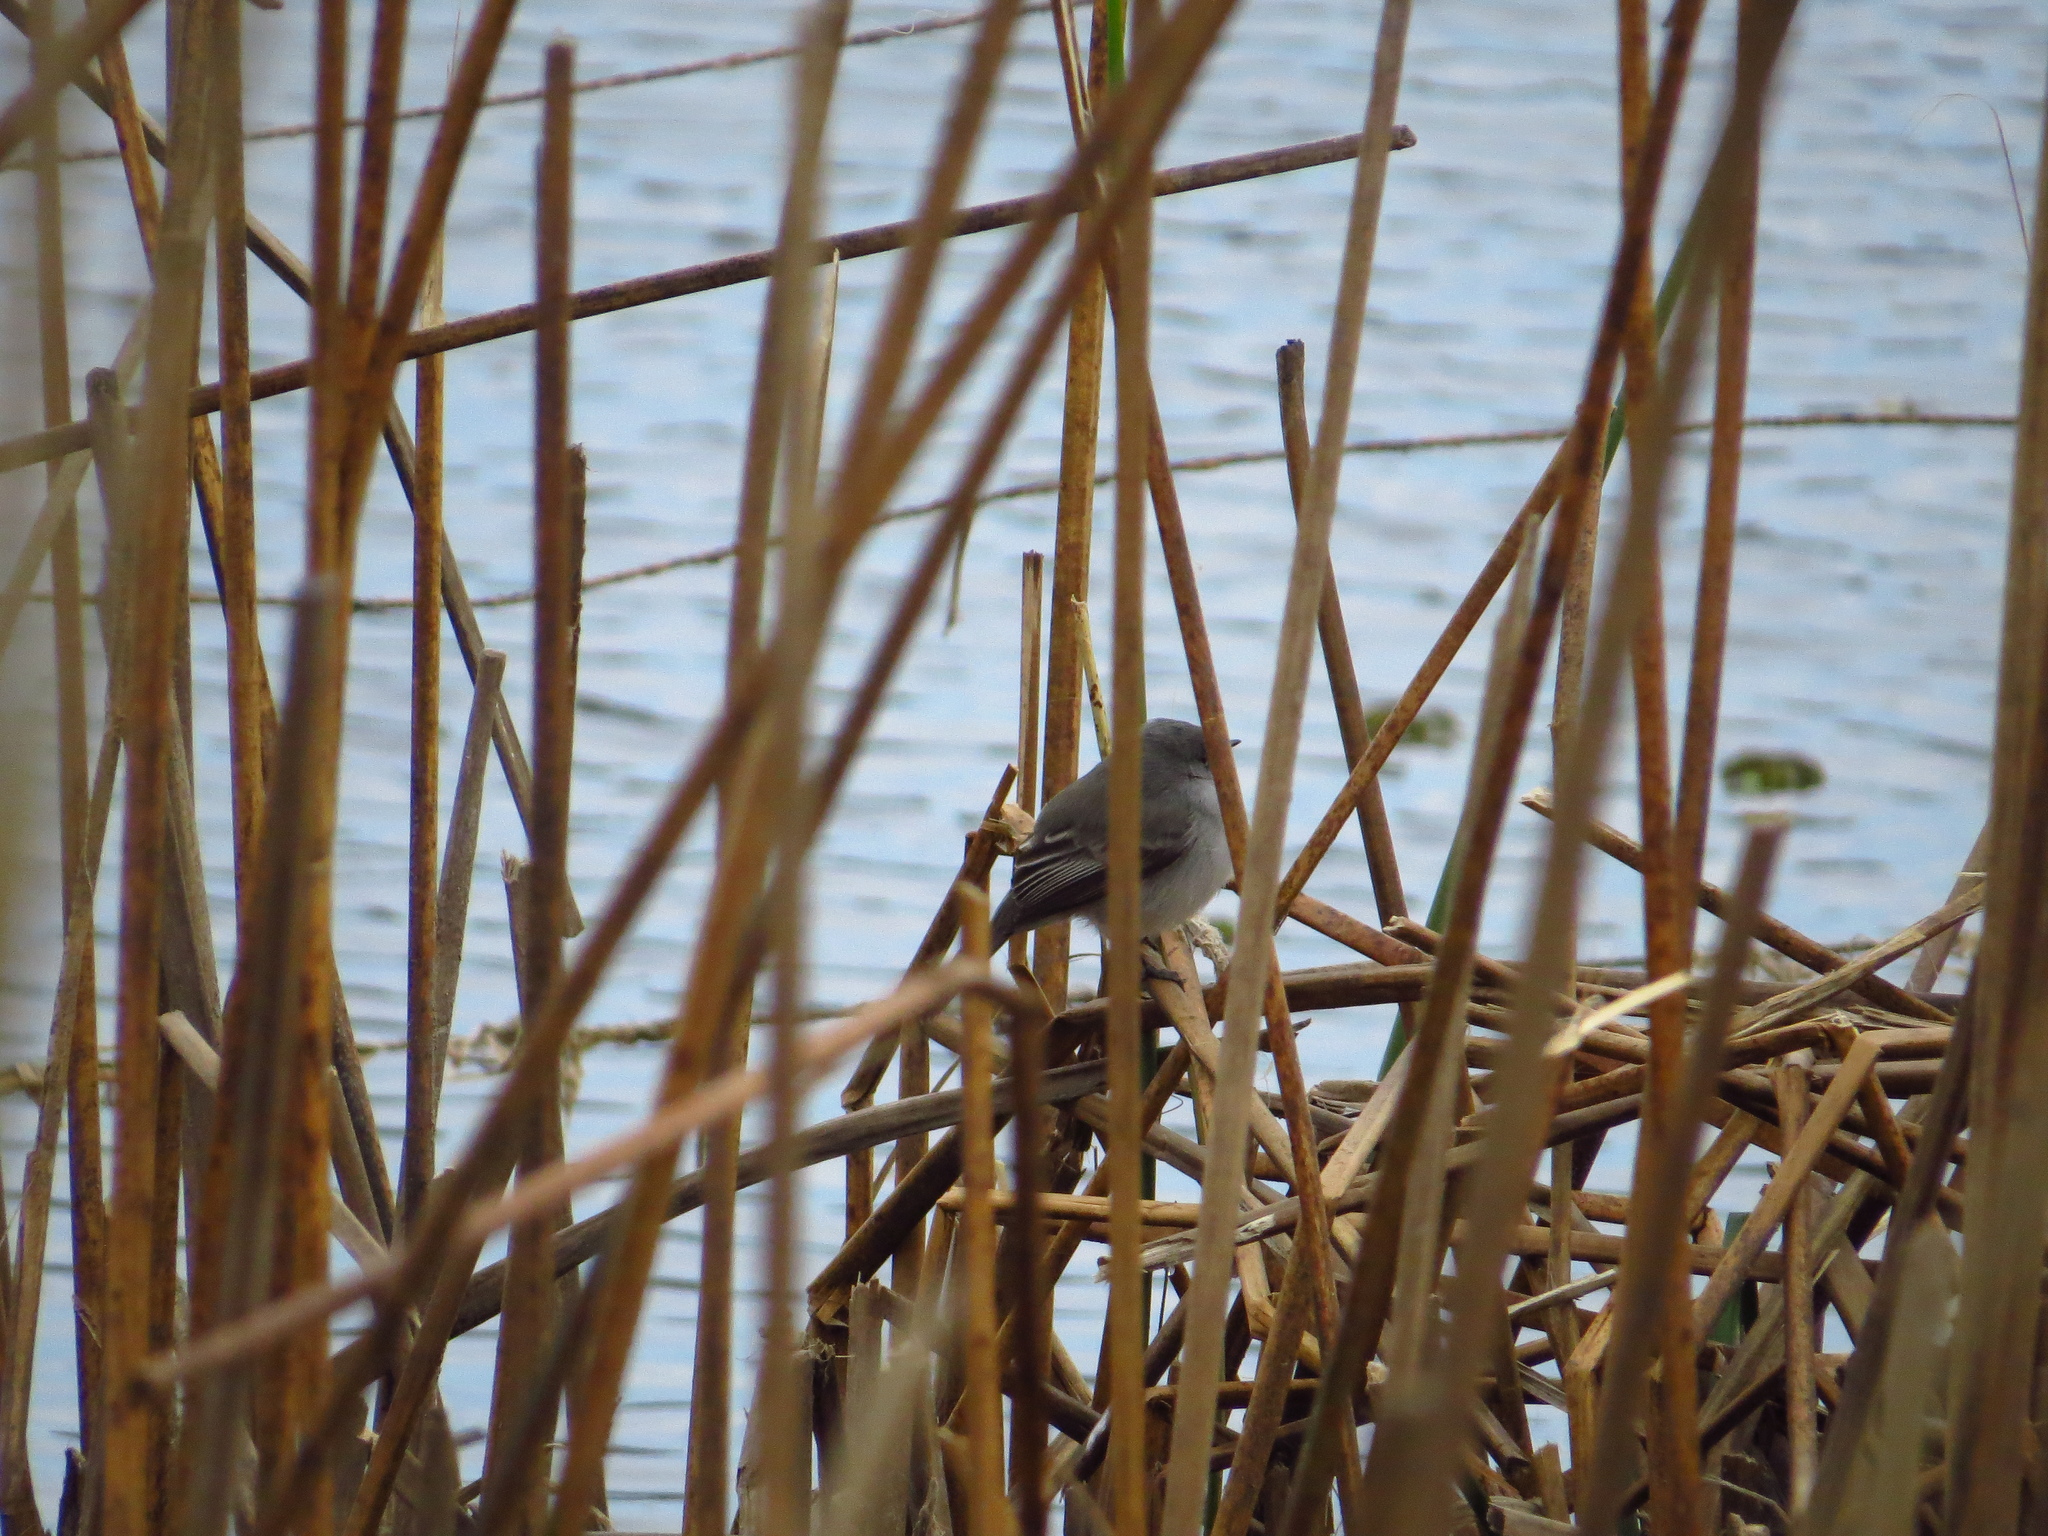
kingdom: Animalia
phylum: Chordata
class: Aves
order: Passeriformes
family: Tyrannidae
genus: Serpophaga
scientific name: Serpophaga nigricans
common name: Sooty tyrannulet
